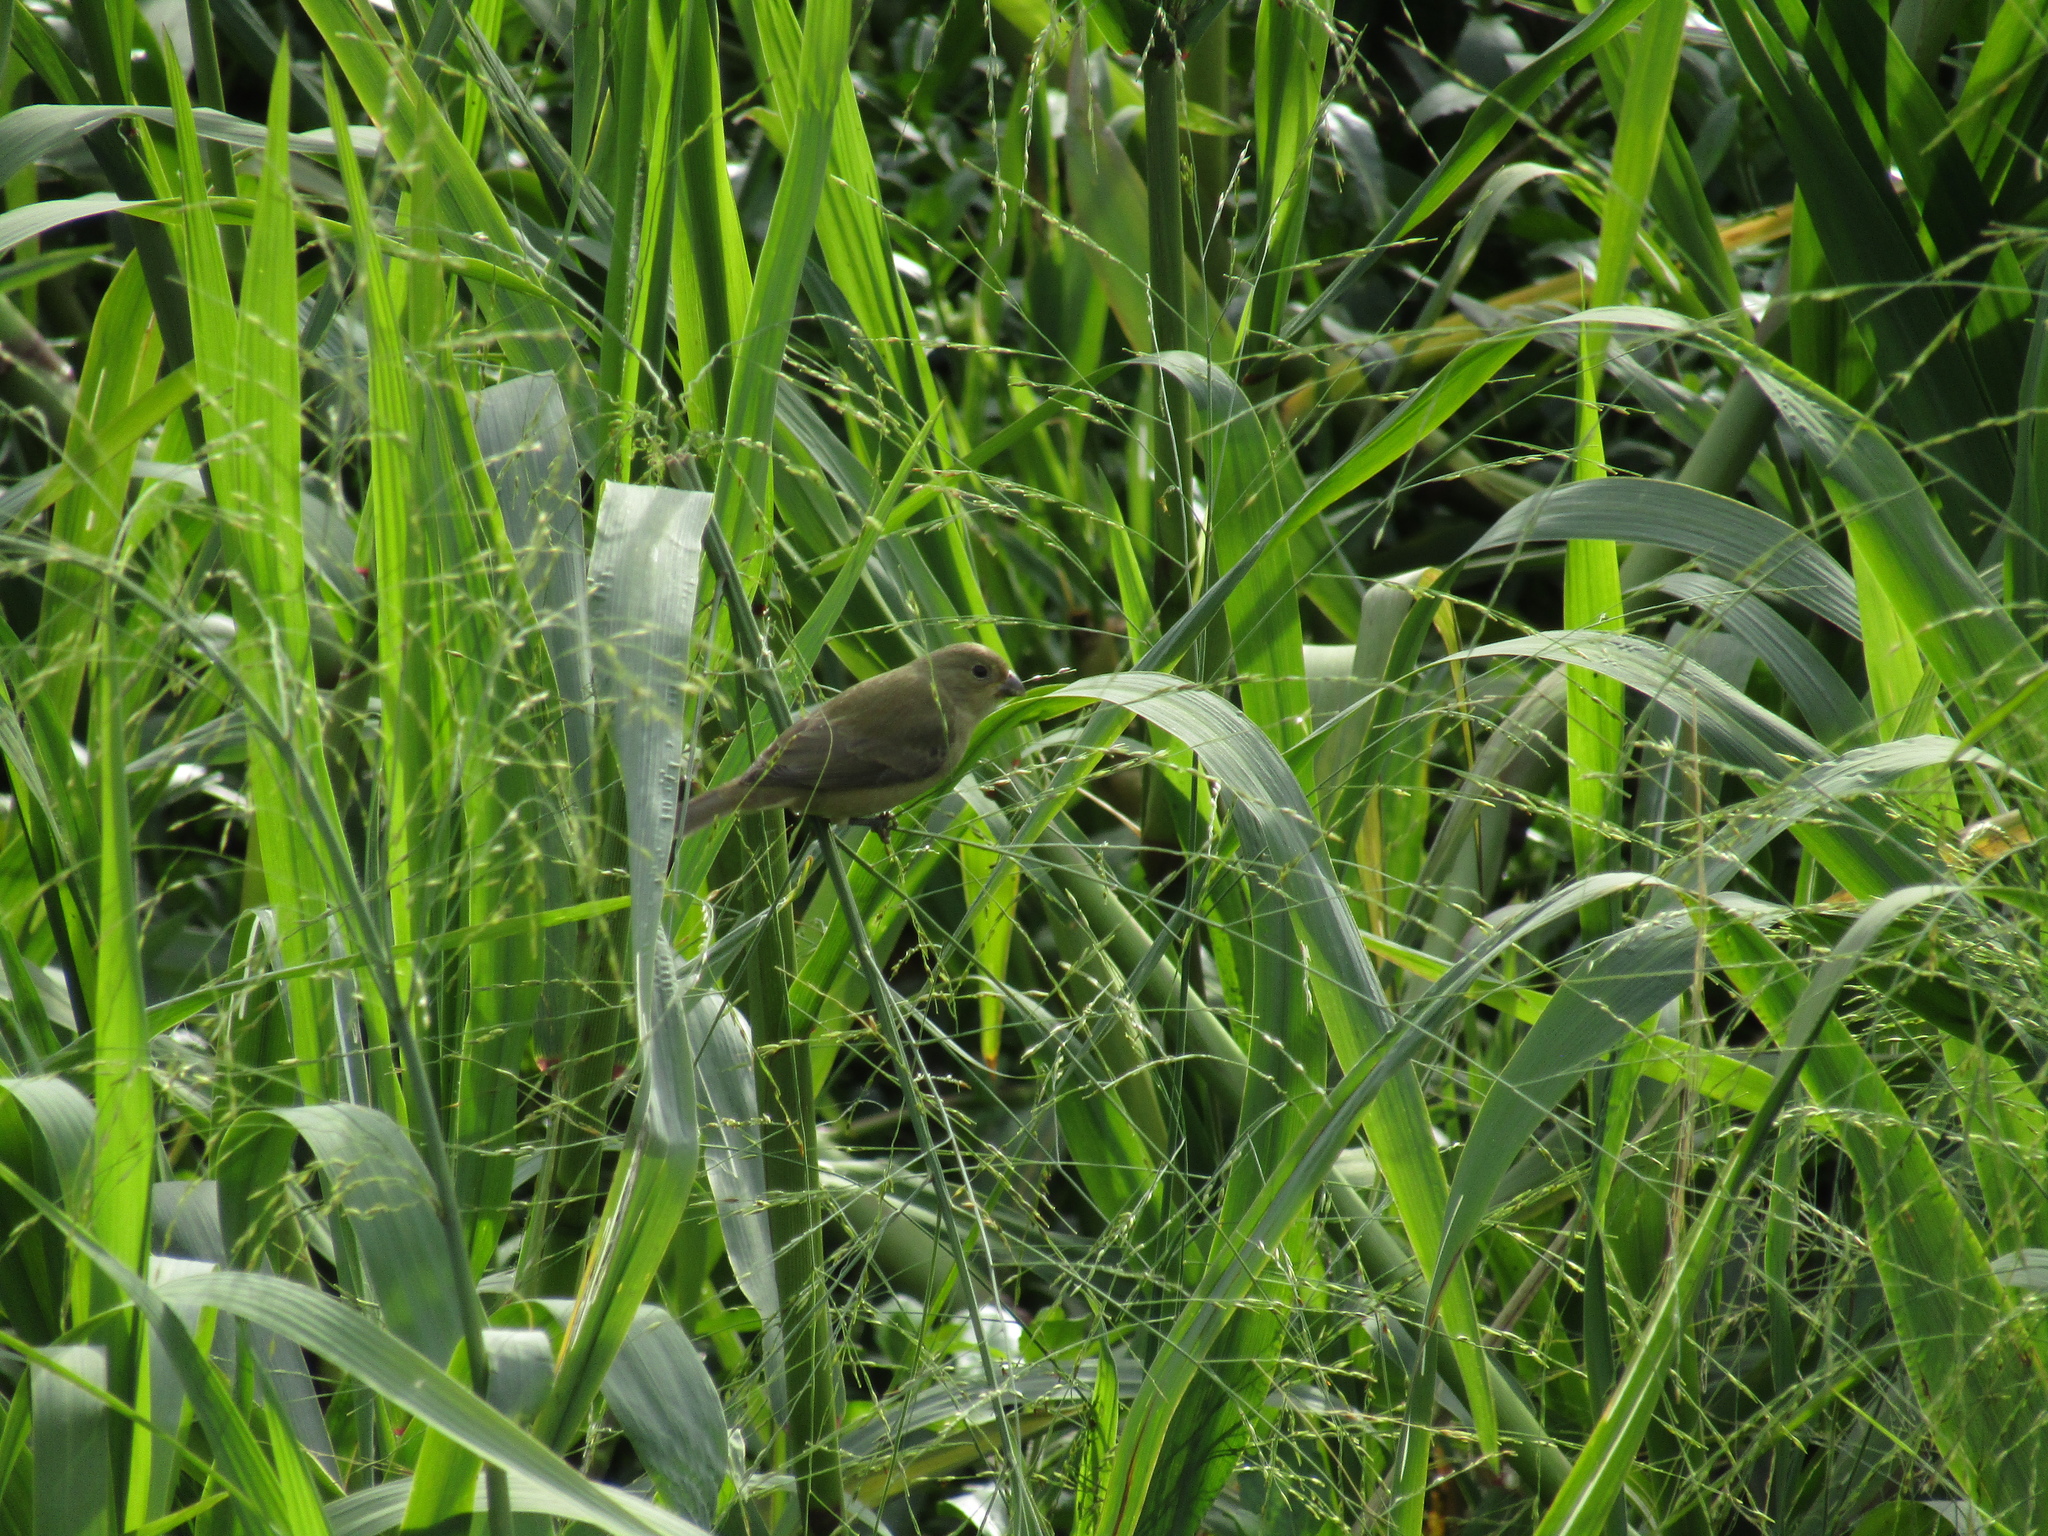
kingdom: Animalia
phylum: Chordata
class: Aves
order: Passeriformes
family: Thraupidae
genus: Sporophila
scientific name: Sporophila caerulescens
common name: Double-collared seedeater
